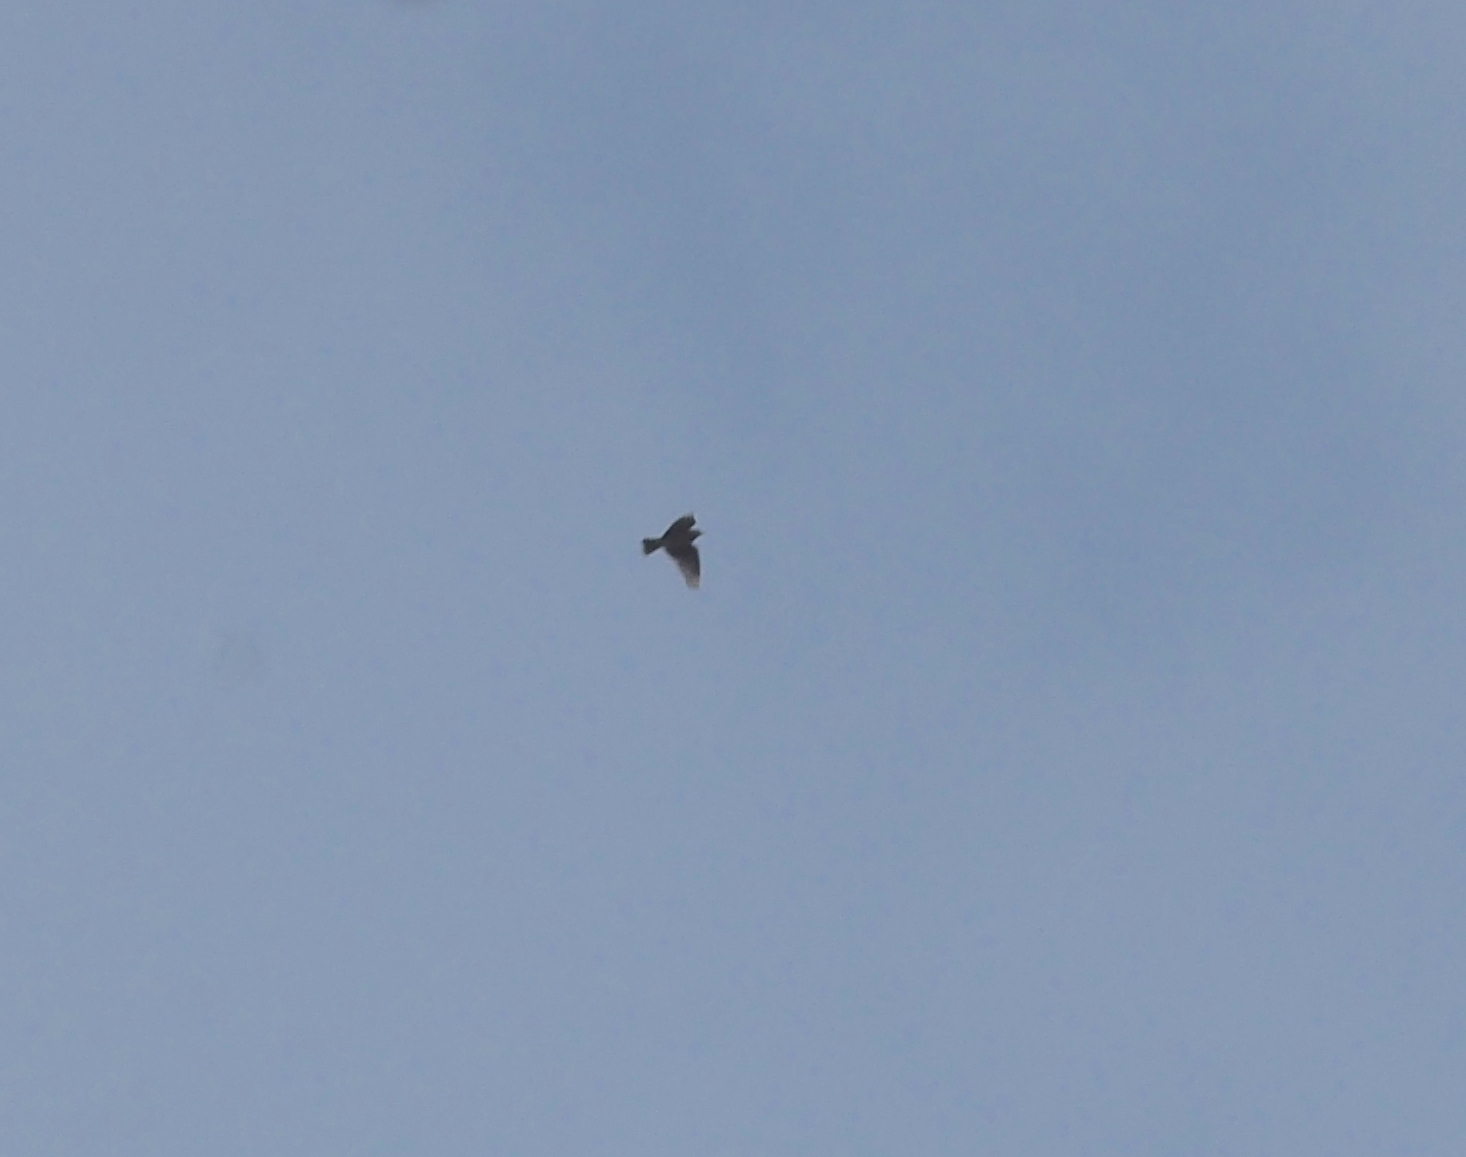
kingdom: Animalia
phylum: Chordata
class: Aves
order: Passeriformes
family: Alaudidae
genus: Alauda
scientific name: Alauda arvensis
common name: Eurasian skylark
